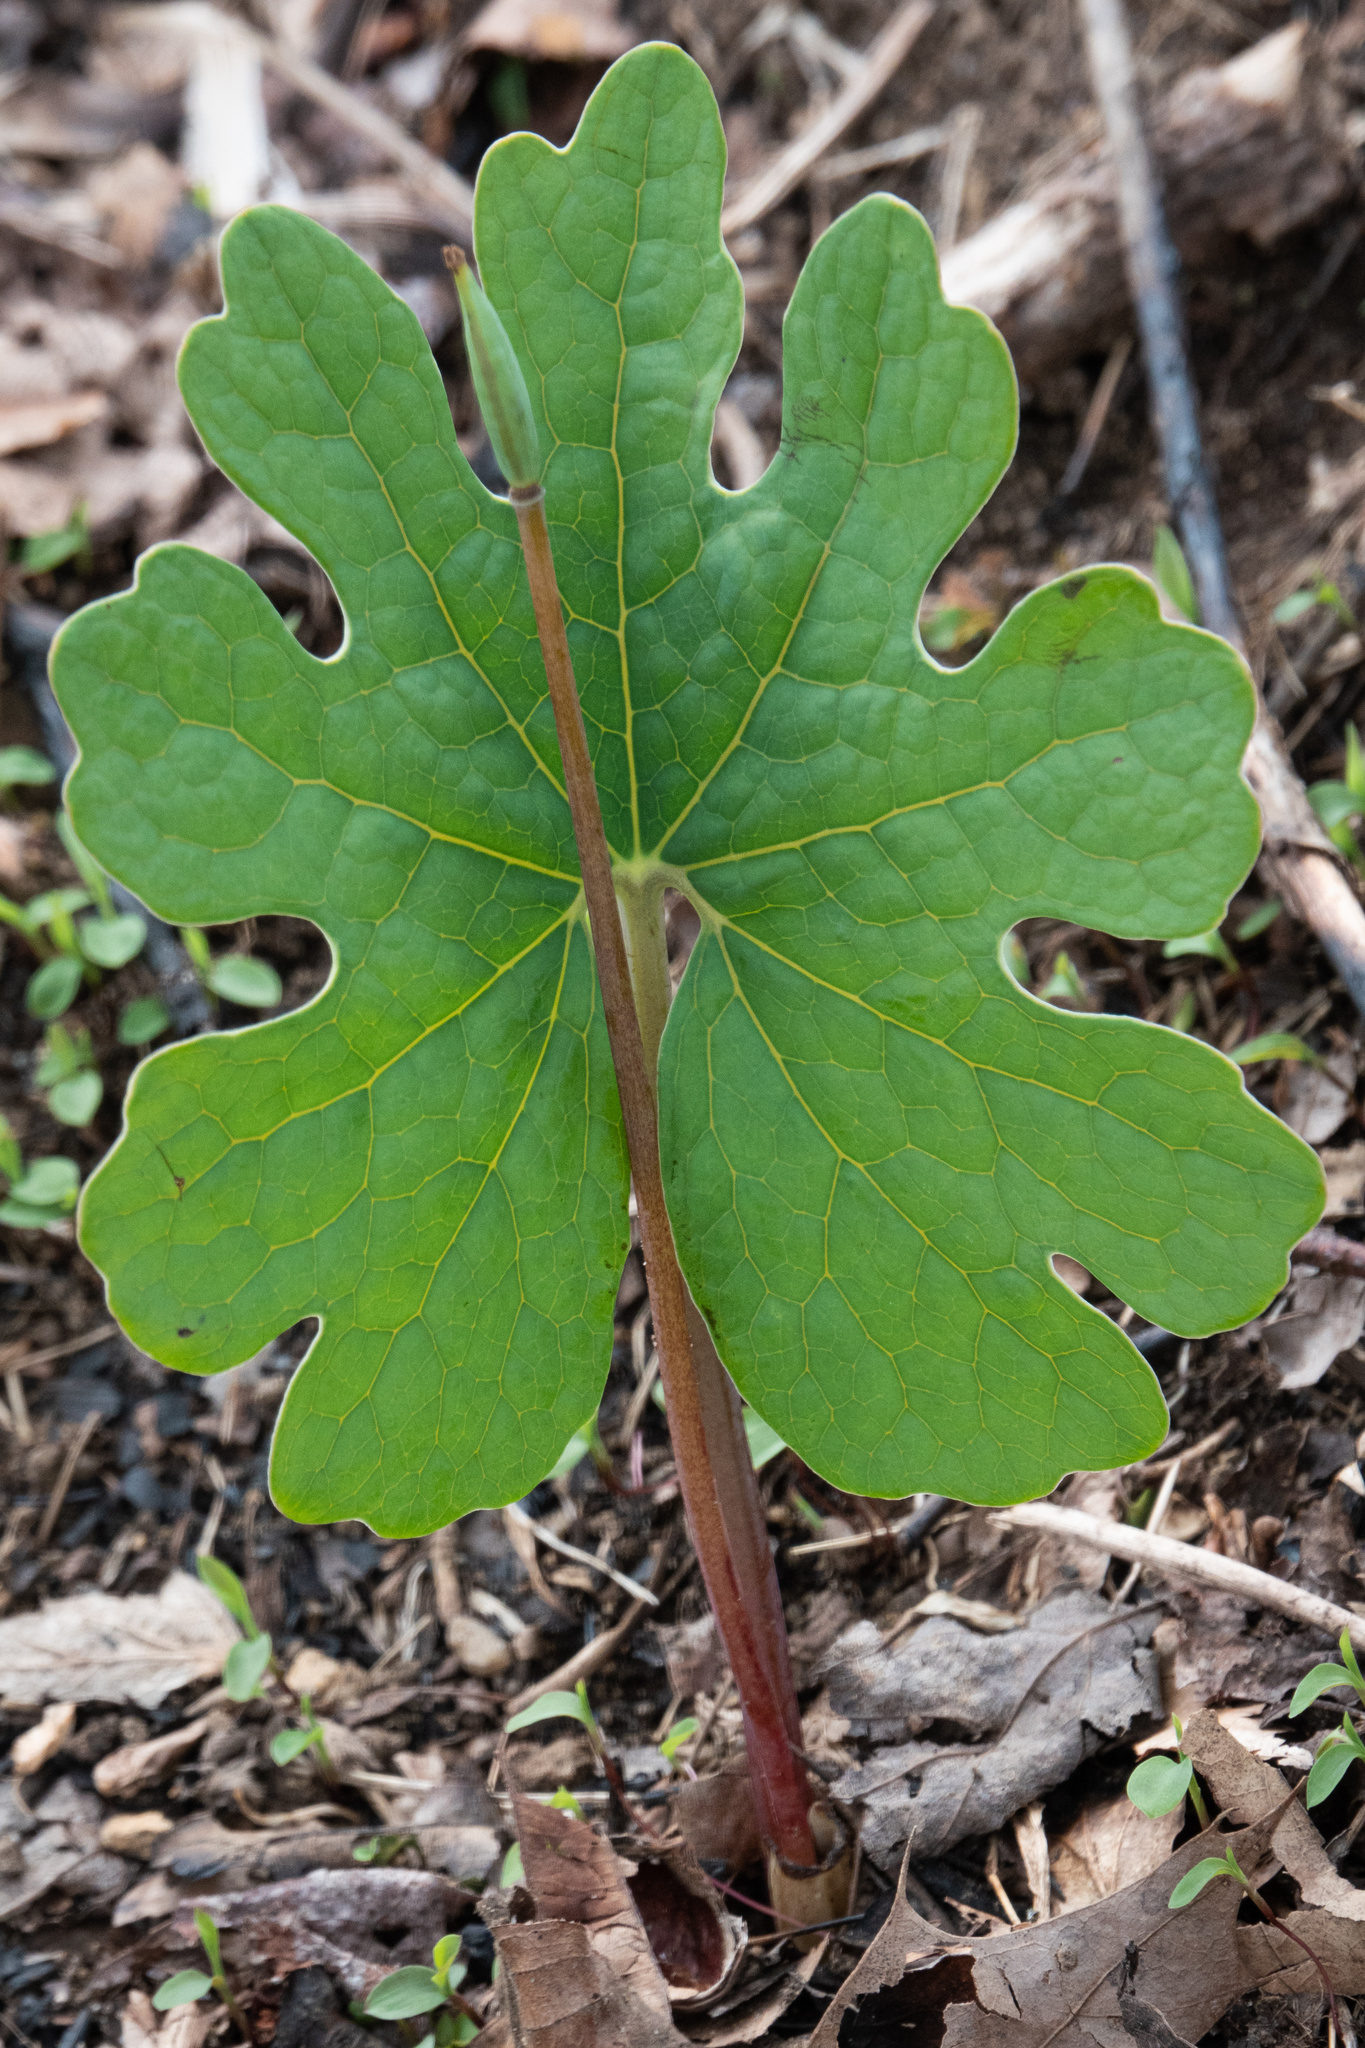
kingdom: Plantae
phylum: Tracheophyta
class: Magnoliopsida
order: Ranunculales
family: Papaveraceae
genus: Sanguinaria
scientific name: Sanguinaria canadensis
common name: Bloodroot
